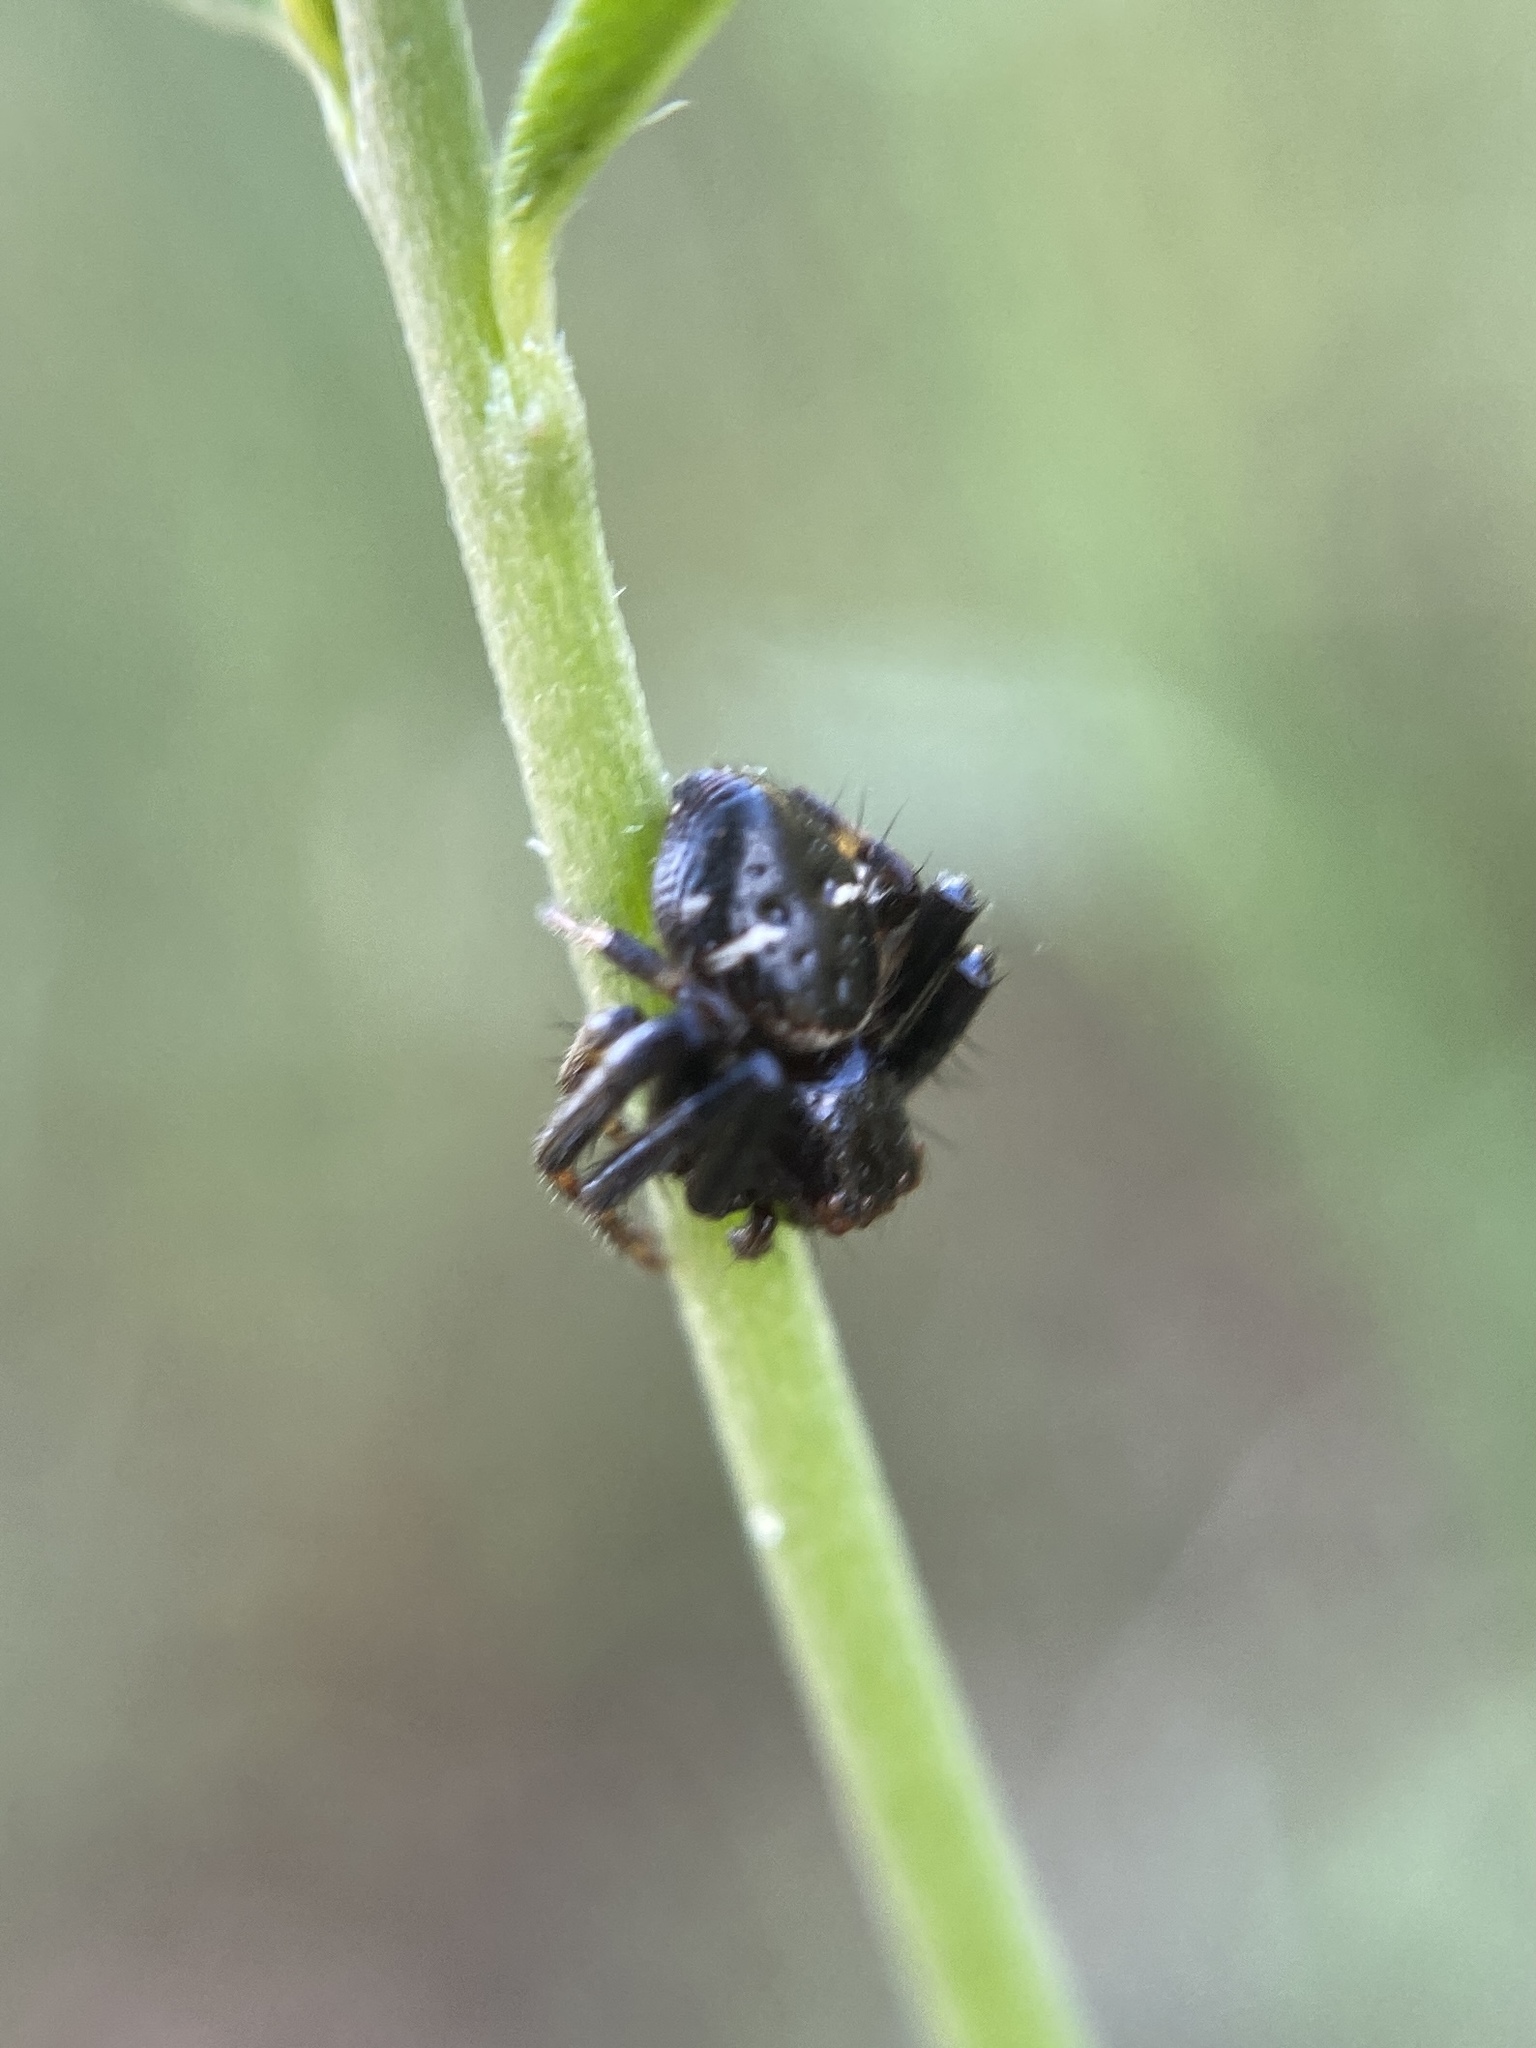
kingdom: Animalia
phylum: Arthropoda
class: Arachnida
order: Araneae
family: Thomisidae
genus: Synema
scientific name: Synema globosum
